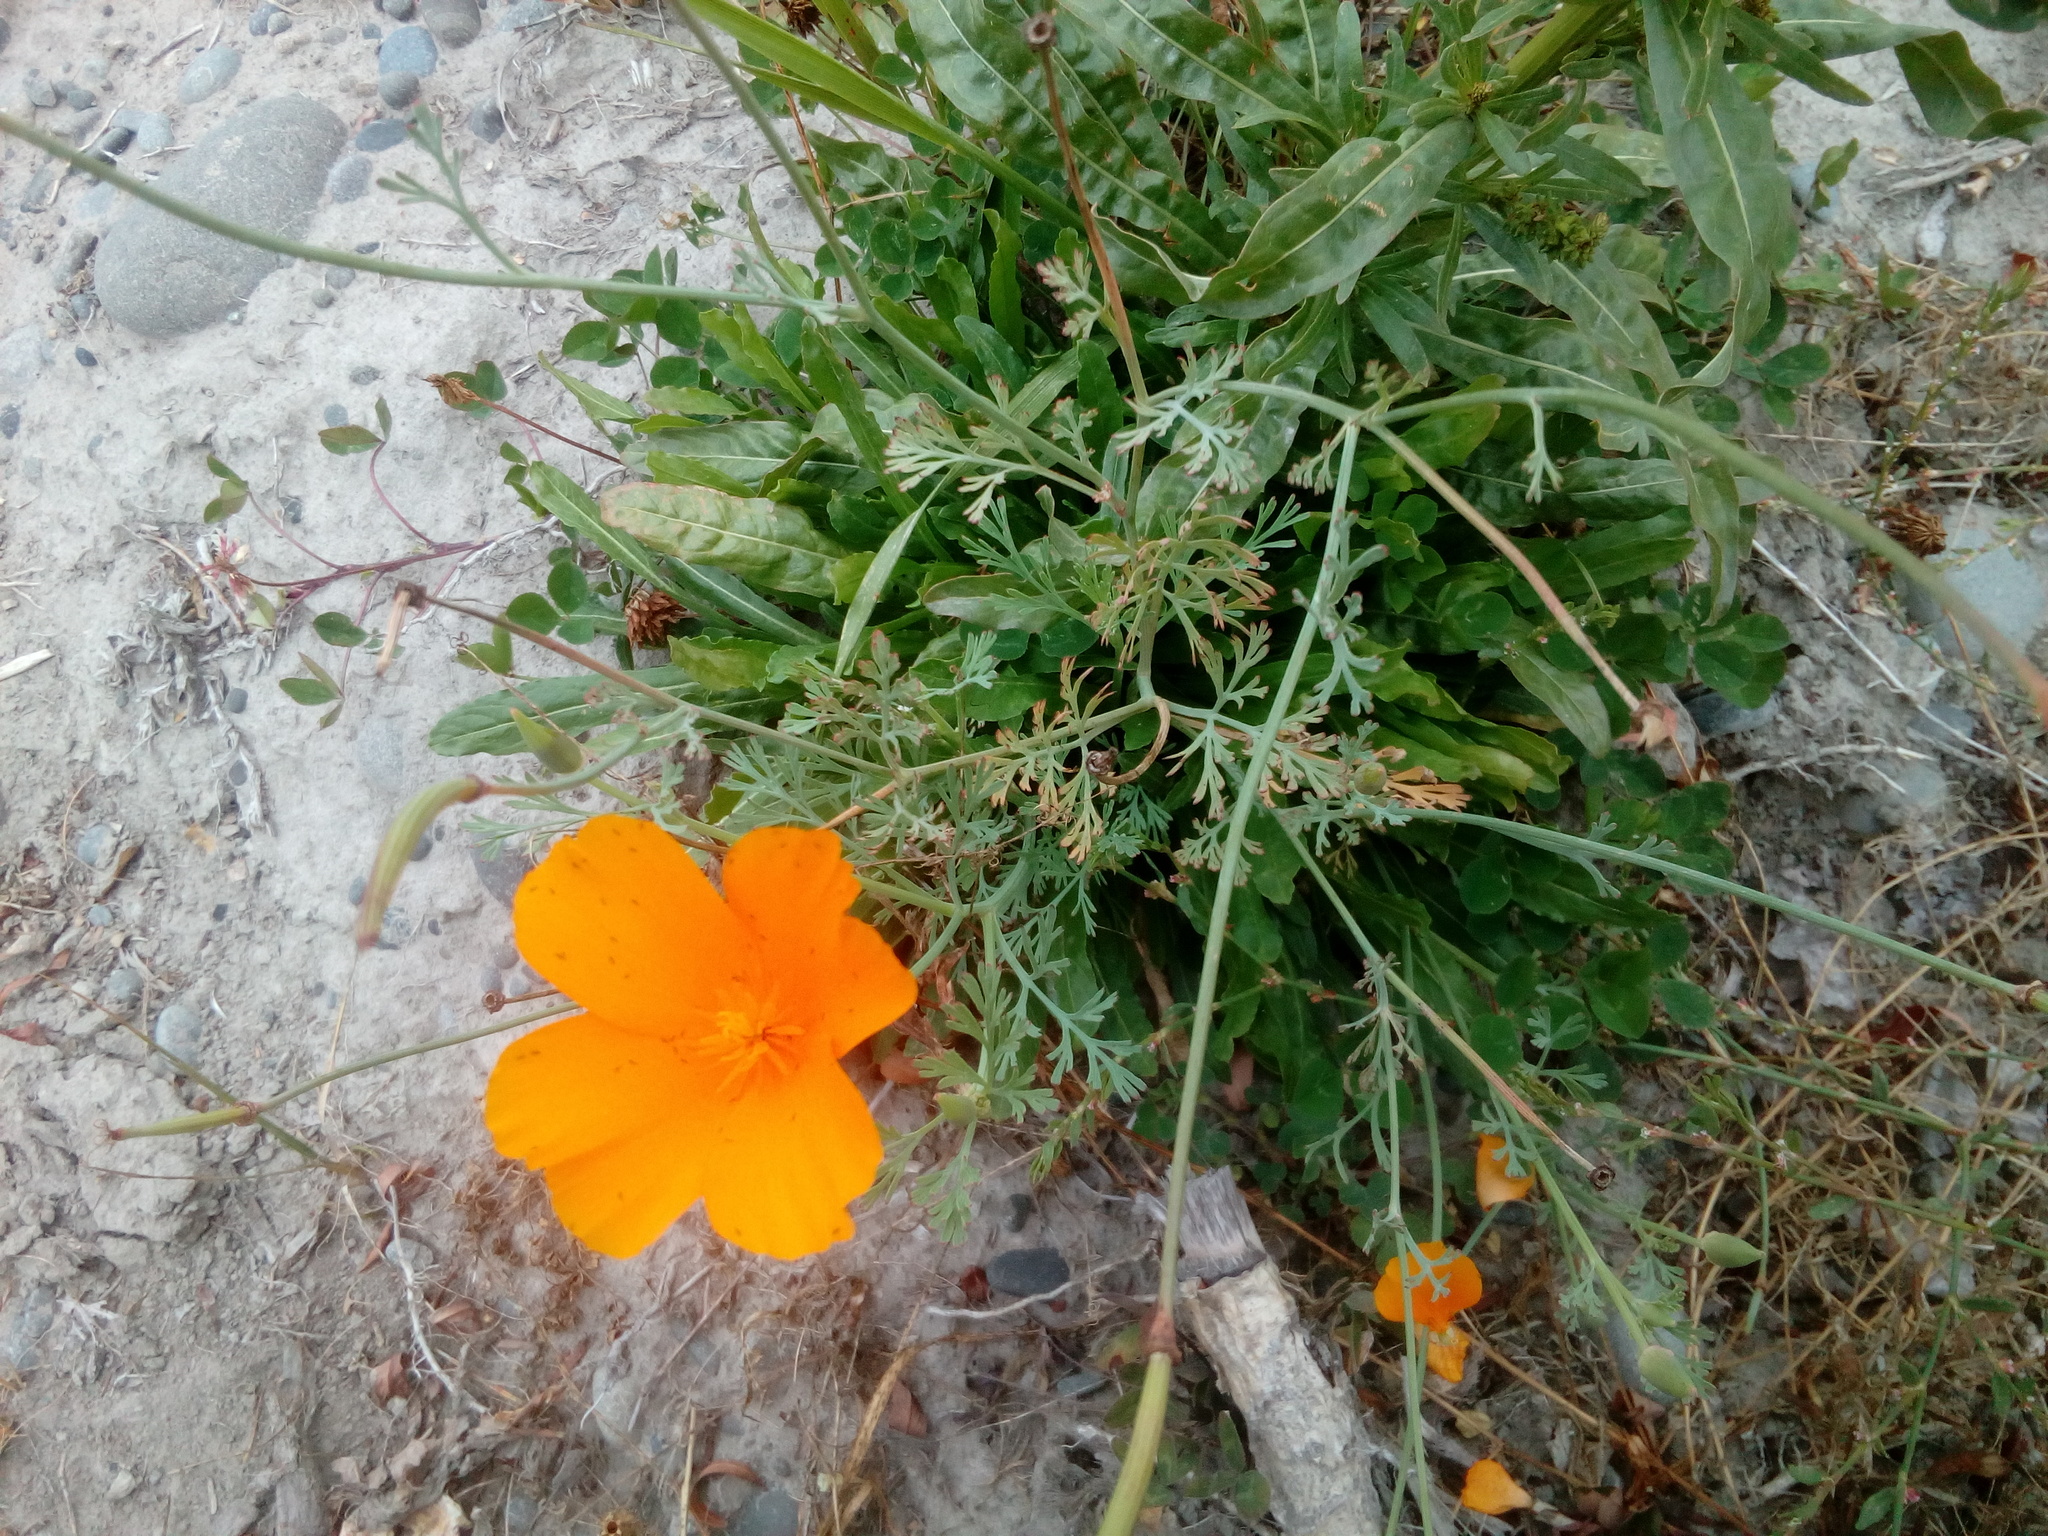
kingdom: Plantae
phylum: Tracheophyta
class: Magnoliopsida
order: Ranunculales
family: Papaveraceae
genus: Eschscholzia
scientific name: Eschscholzia californica
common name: California poppy
